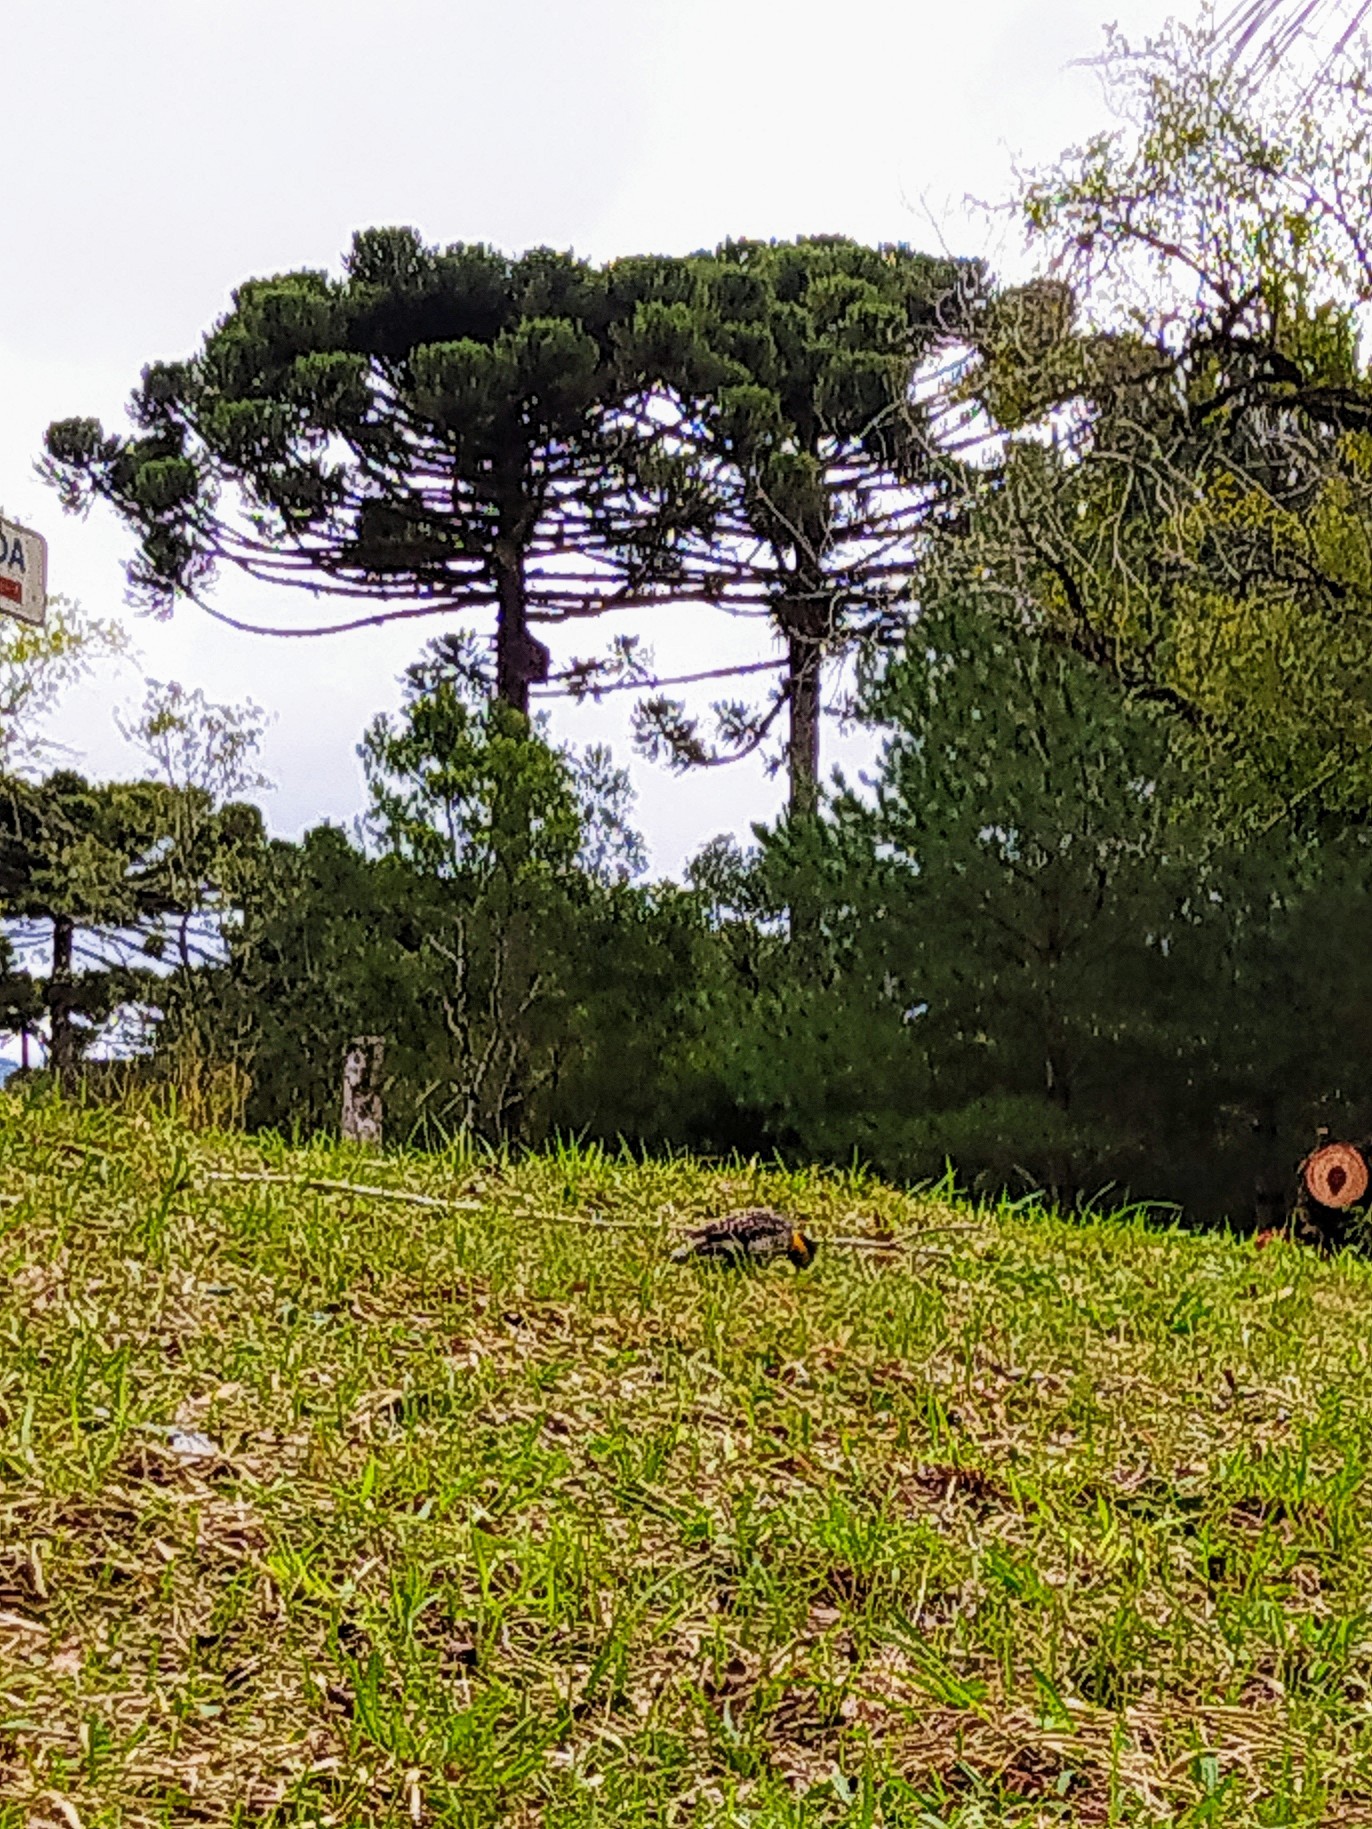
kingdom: Animalia
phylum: Chordata
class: Aves
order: Piciformes
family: Picidae
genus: Colaptes
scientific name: Colaptes campestris
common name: Campo flicker
